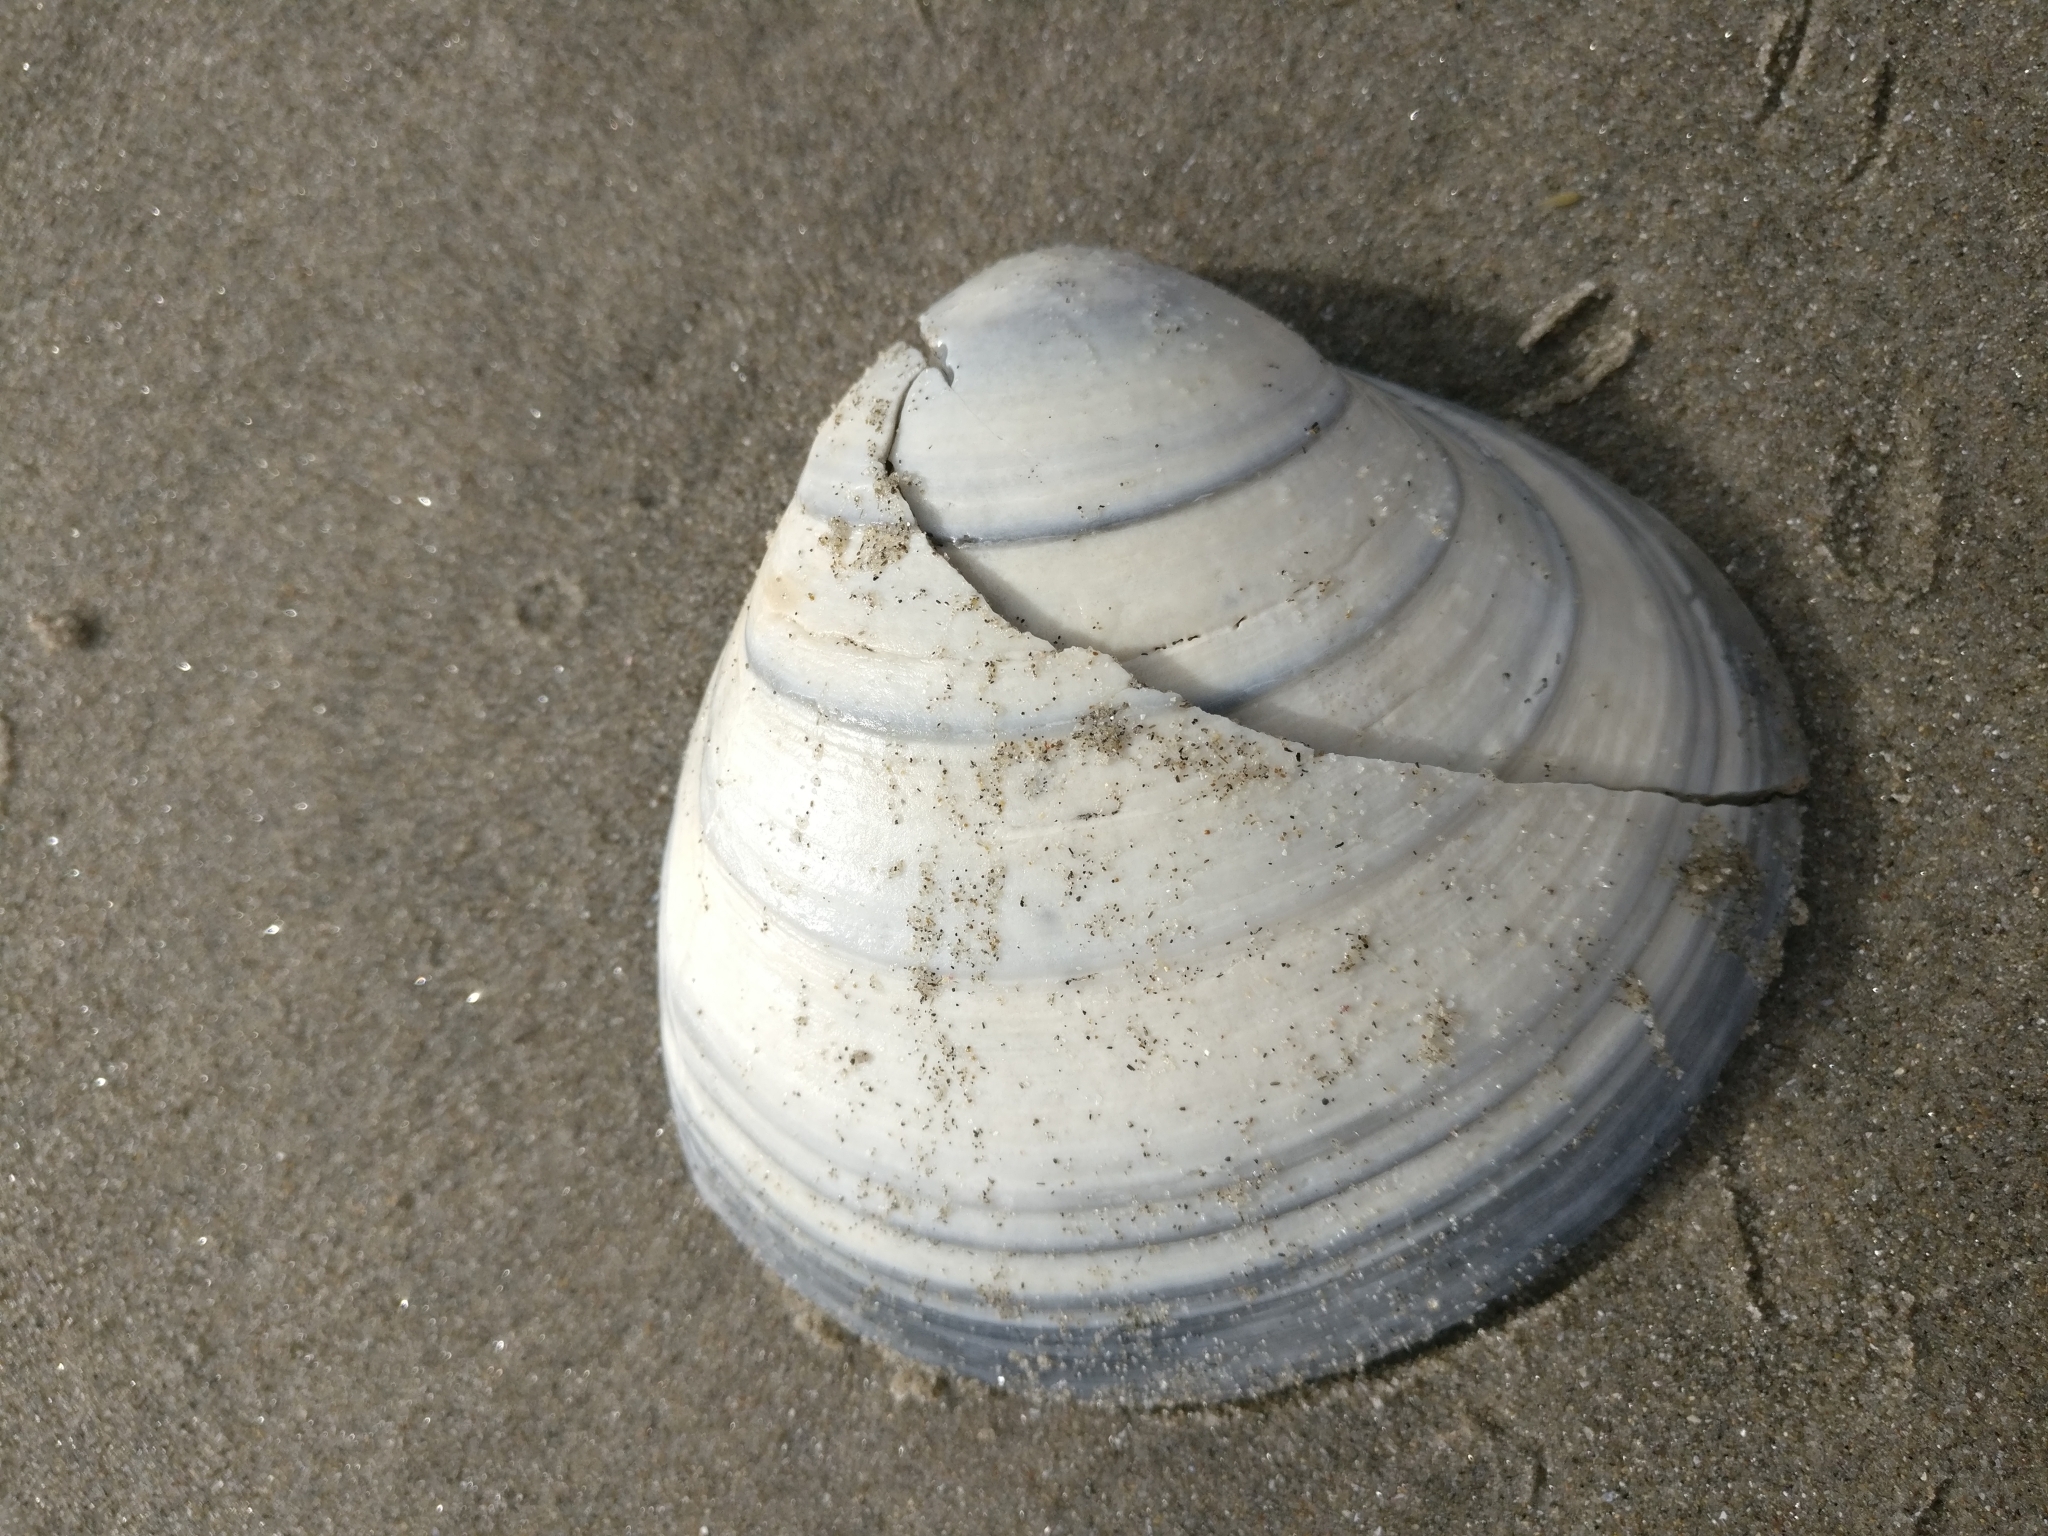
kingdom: Animalia
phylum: Mollusca
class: Bivalvia
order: Venerida
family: Mactridae
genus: Spisula
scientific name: Spisula discors
